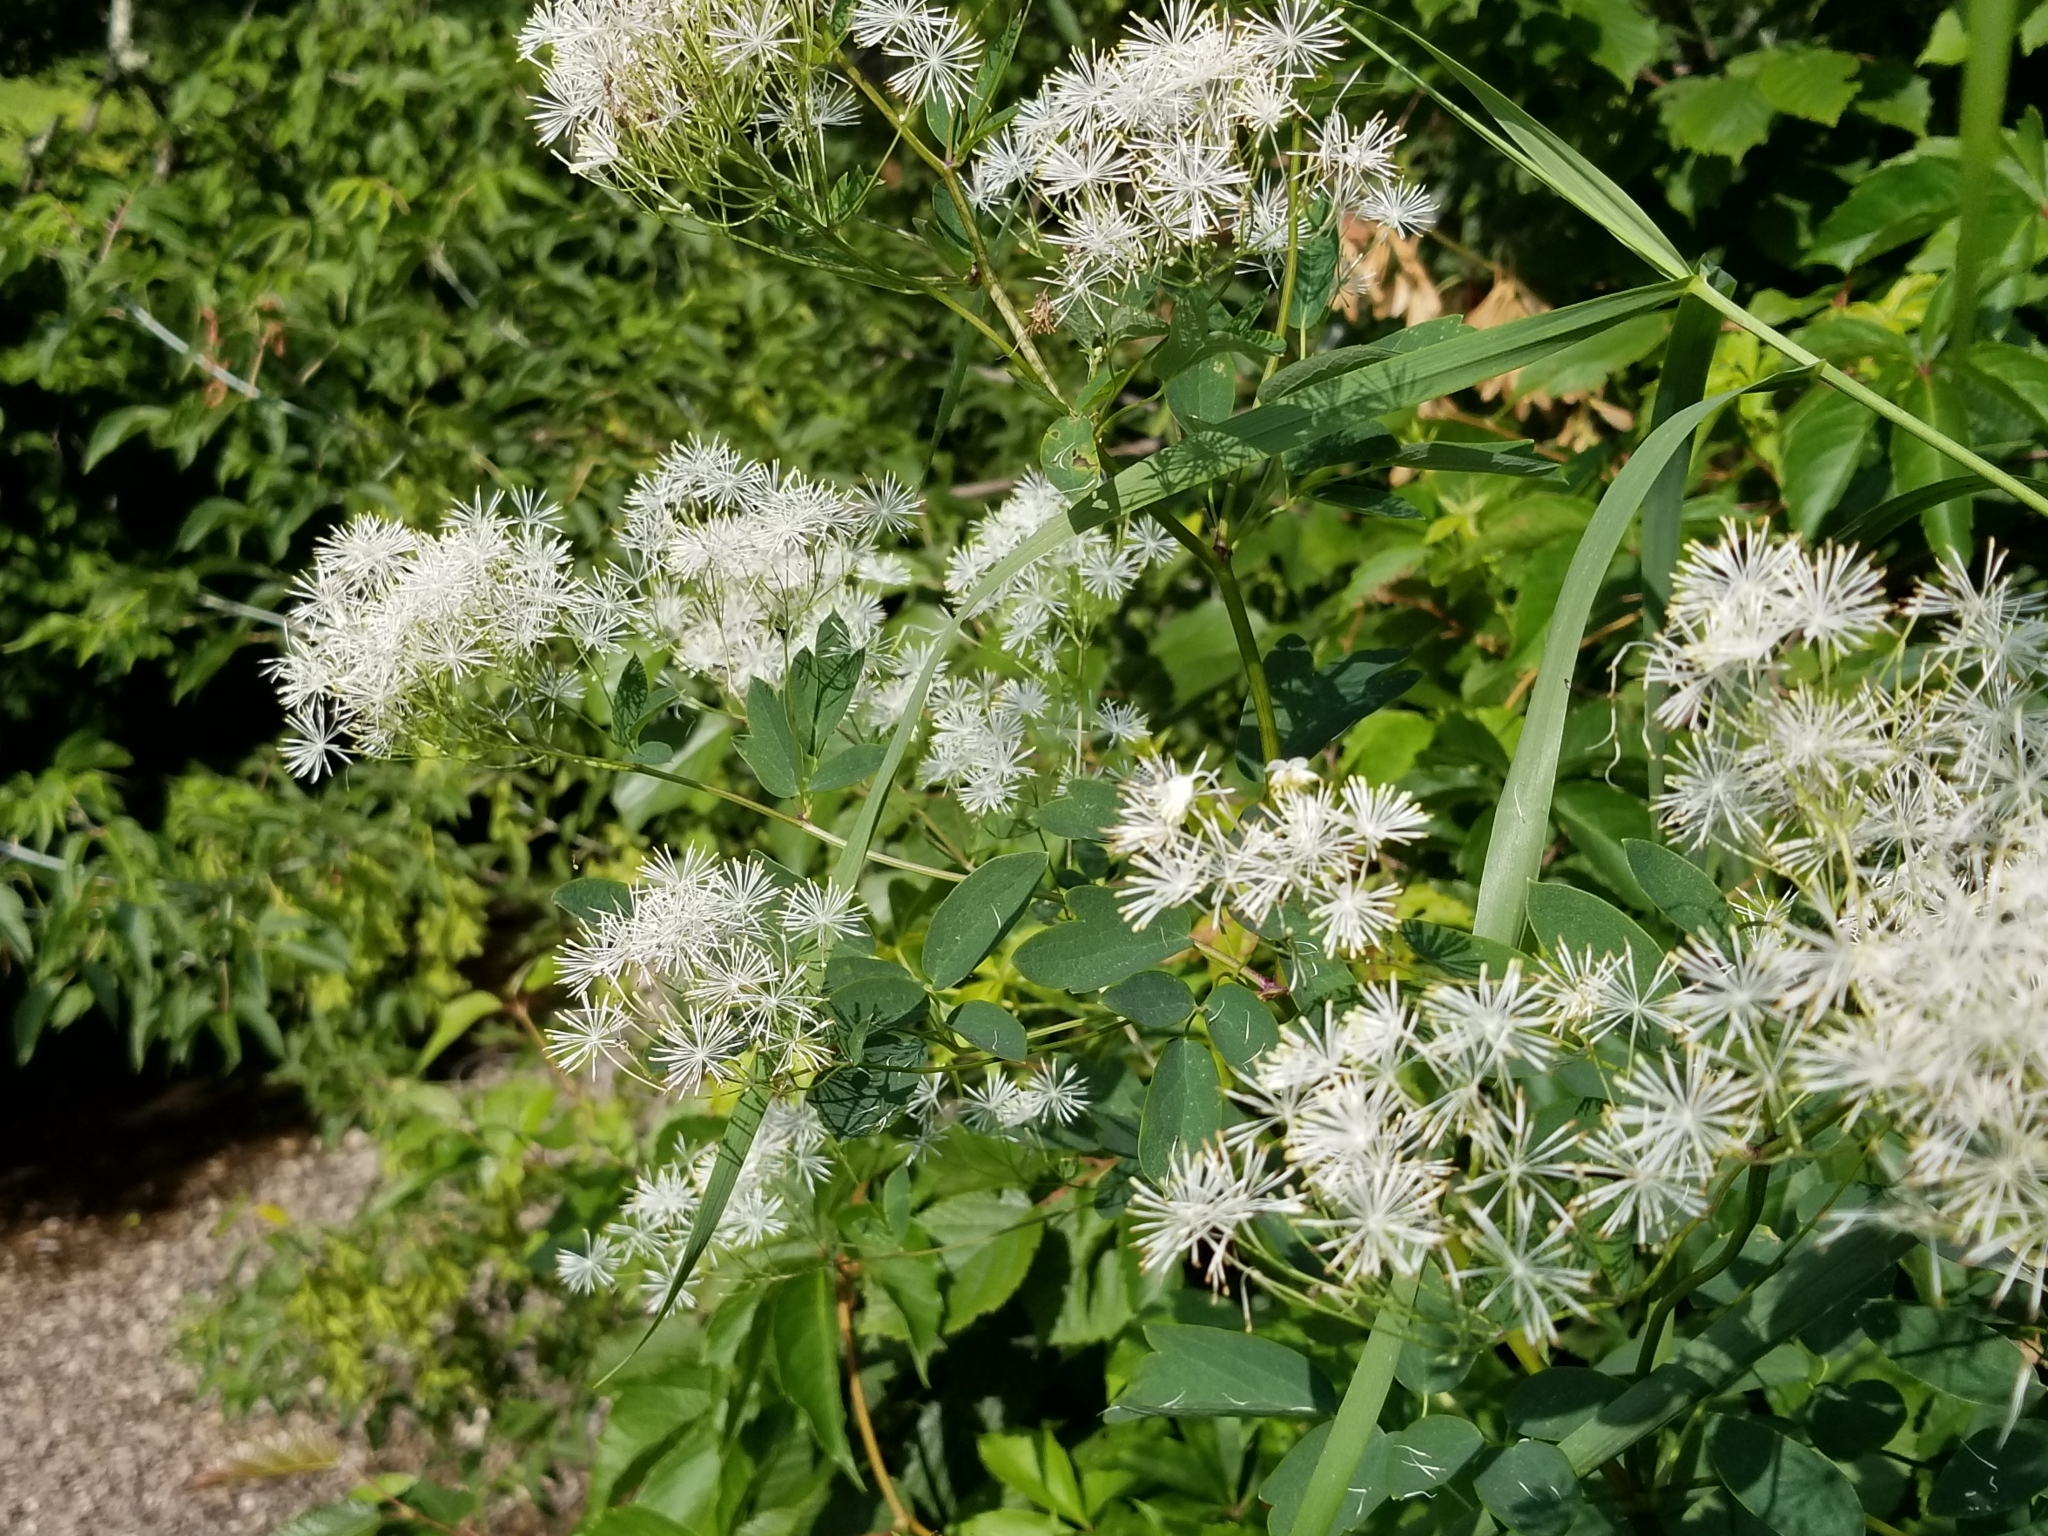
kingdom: Plantae
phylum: Tracheophyta
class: Magnoliopsida
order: Ranunculales
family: Ranunculaceae
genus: Thalictrum
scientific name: Thalictrum pubescens
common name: King-of-the-meadow
